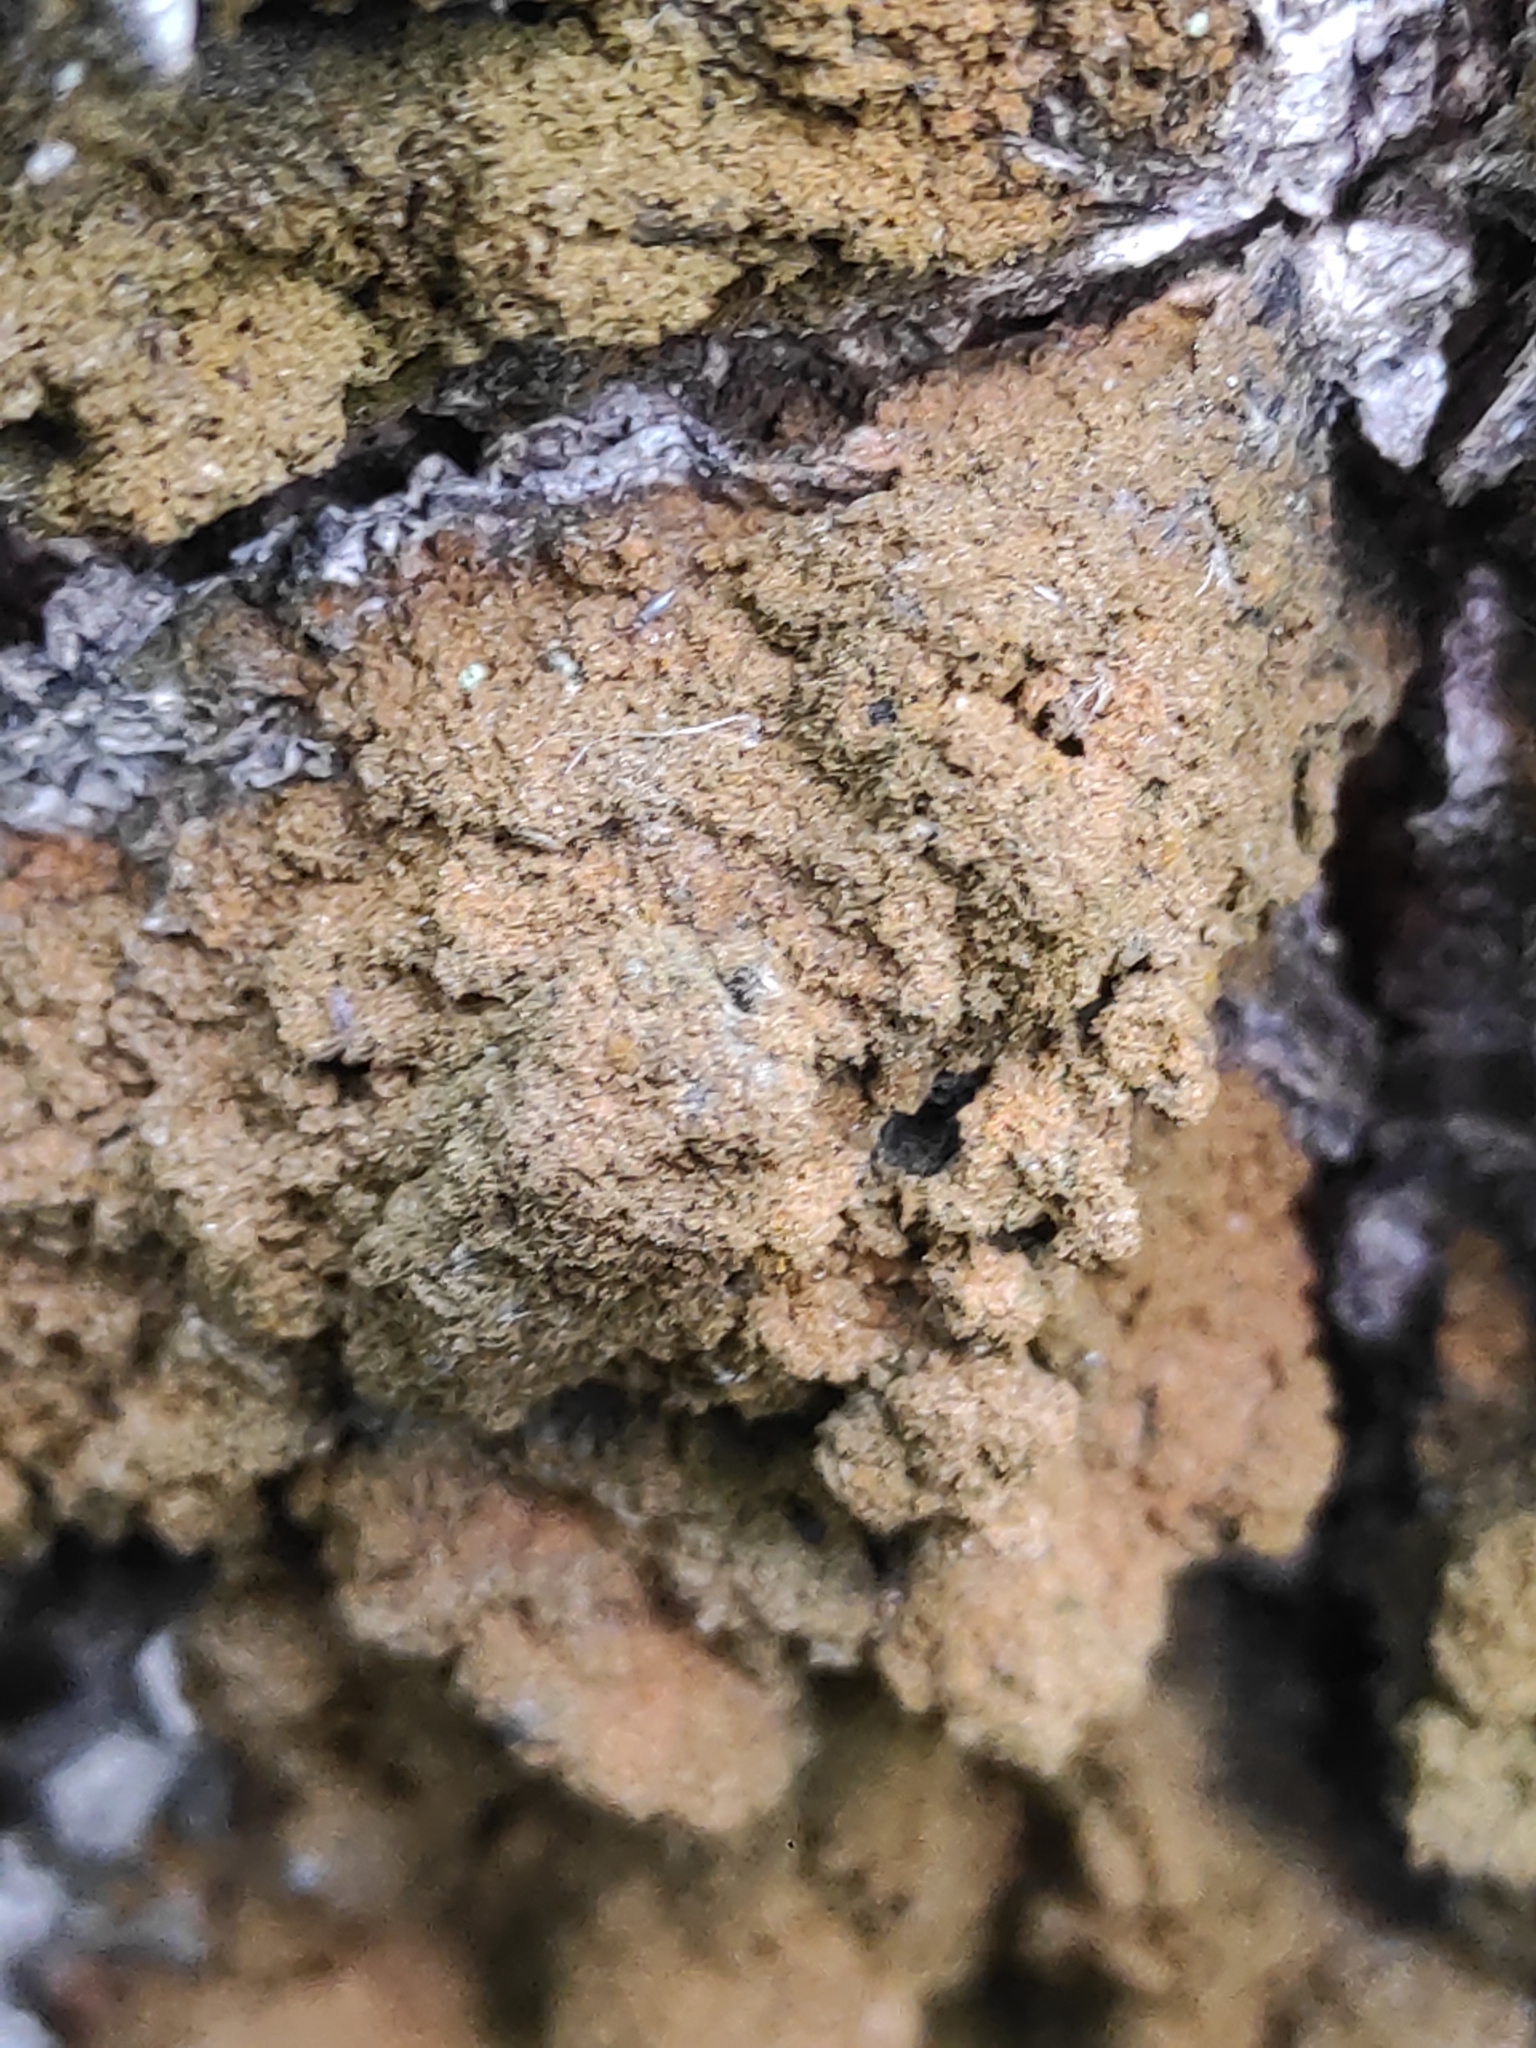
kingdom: Plantae
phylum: Chlorophyta
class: Ulvophyceae
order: Trentepohliales
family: Trentepohliaceae
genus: Trentepohlia
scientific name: Trentepohlia
